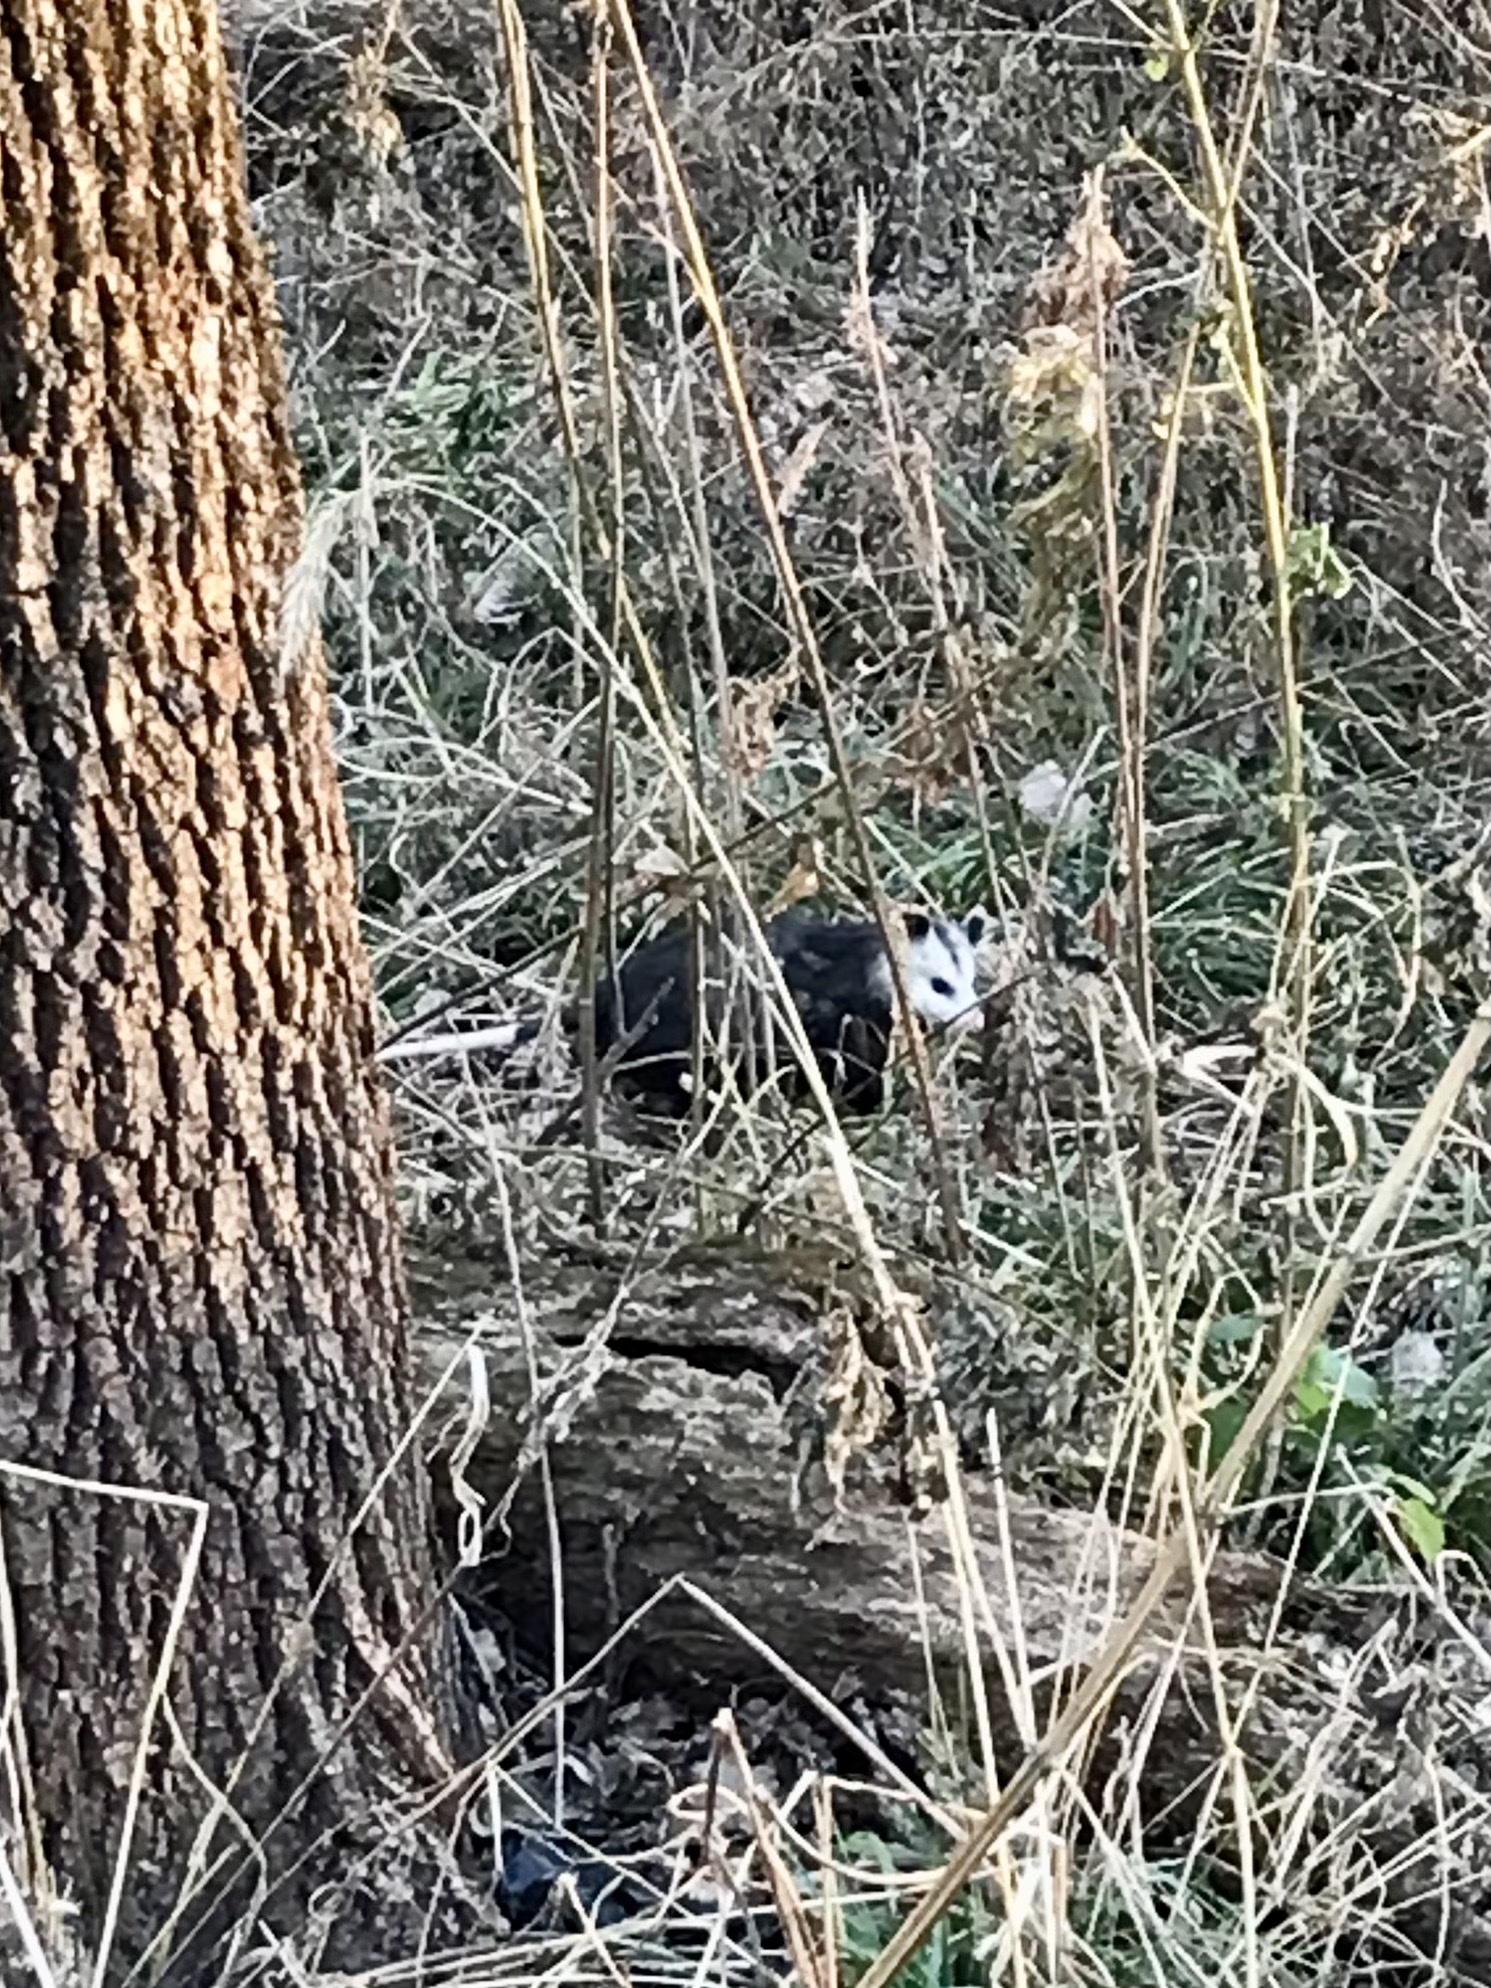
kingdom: Animalia
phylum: Chordata
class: Mammalia
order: Didelphimorphia
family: Didelphidae
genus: Didelphis
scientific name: Didelphis virginiana
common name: Virginia opossum
